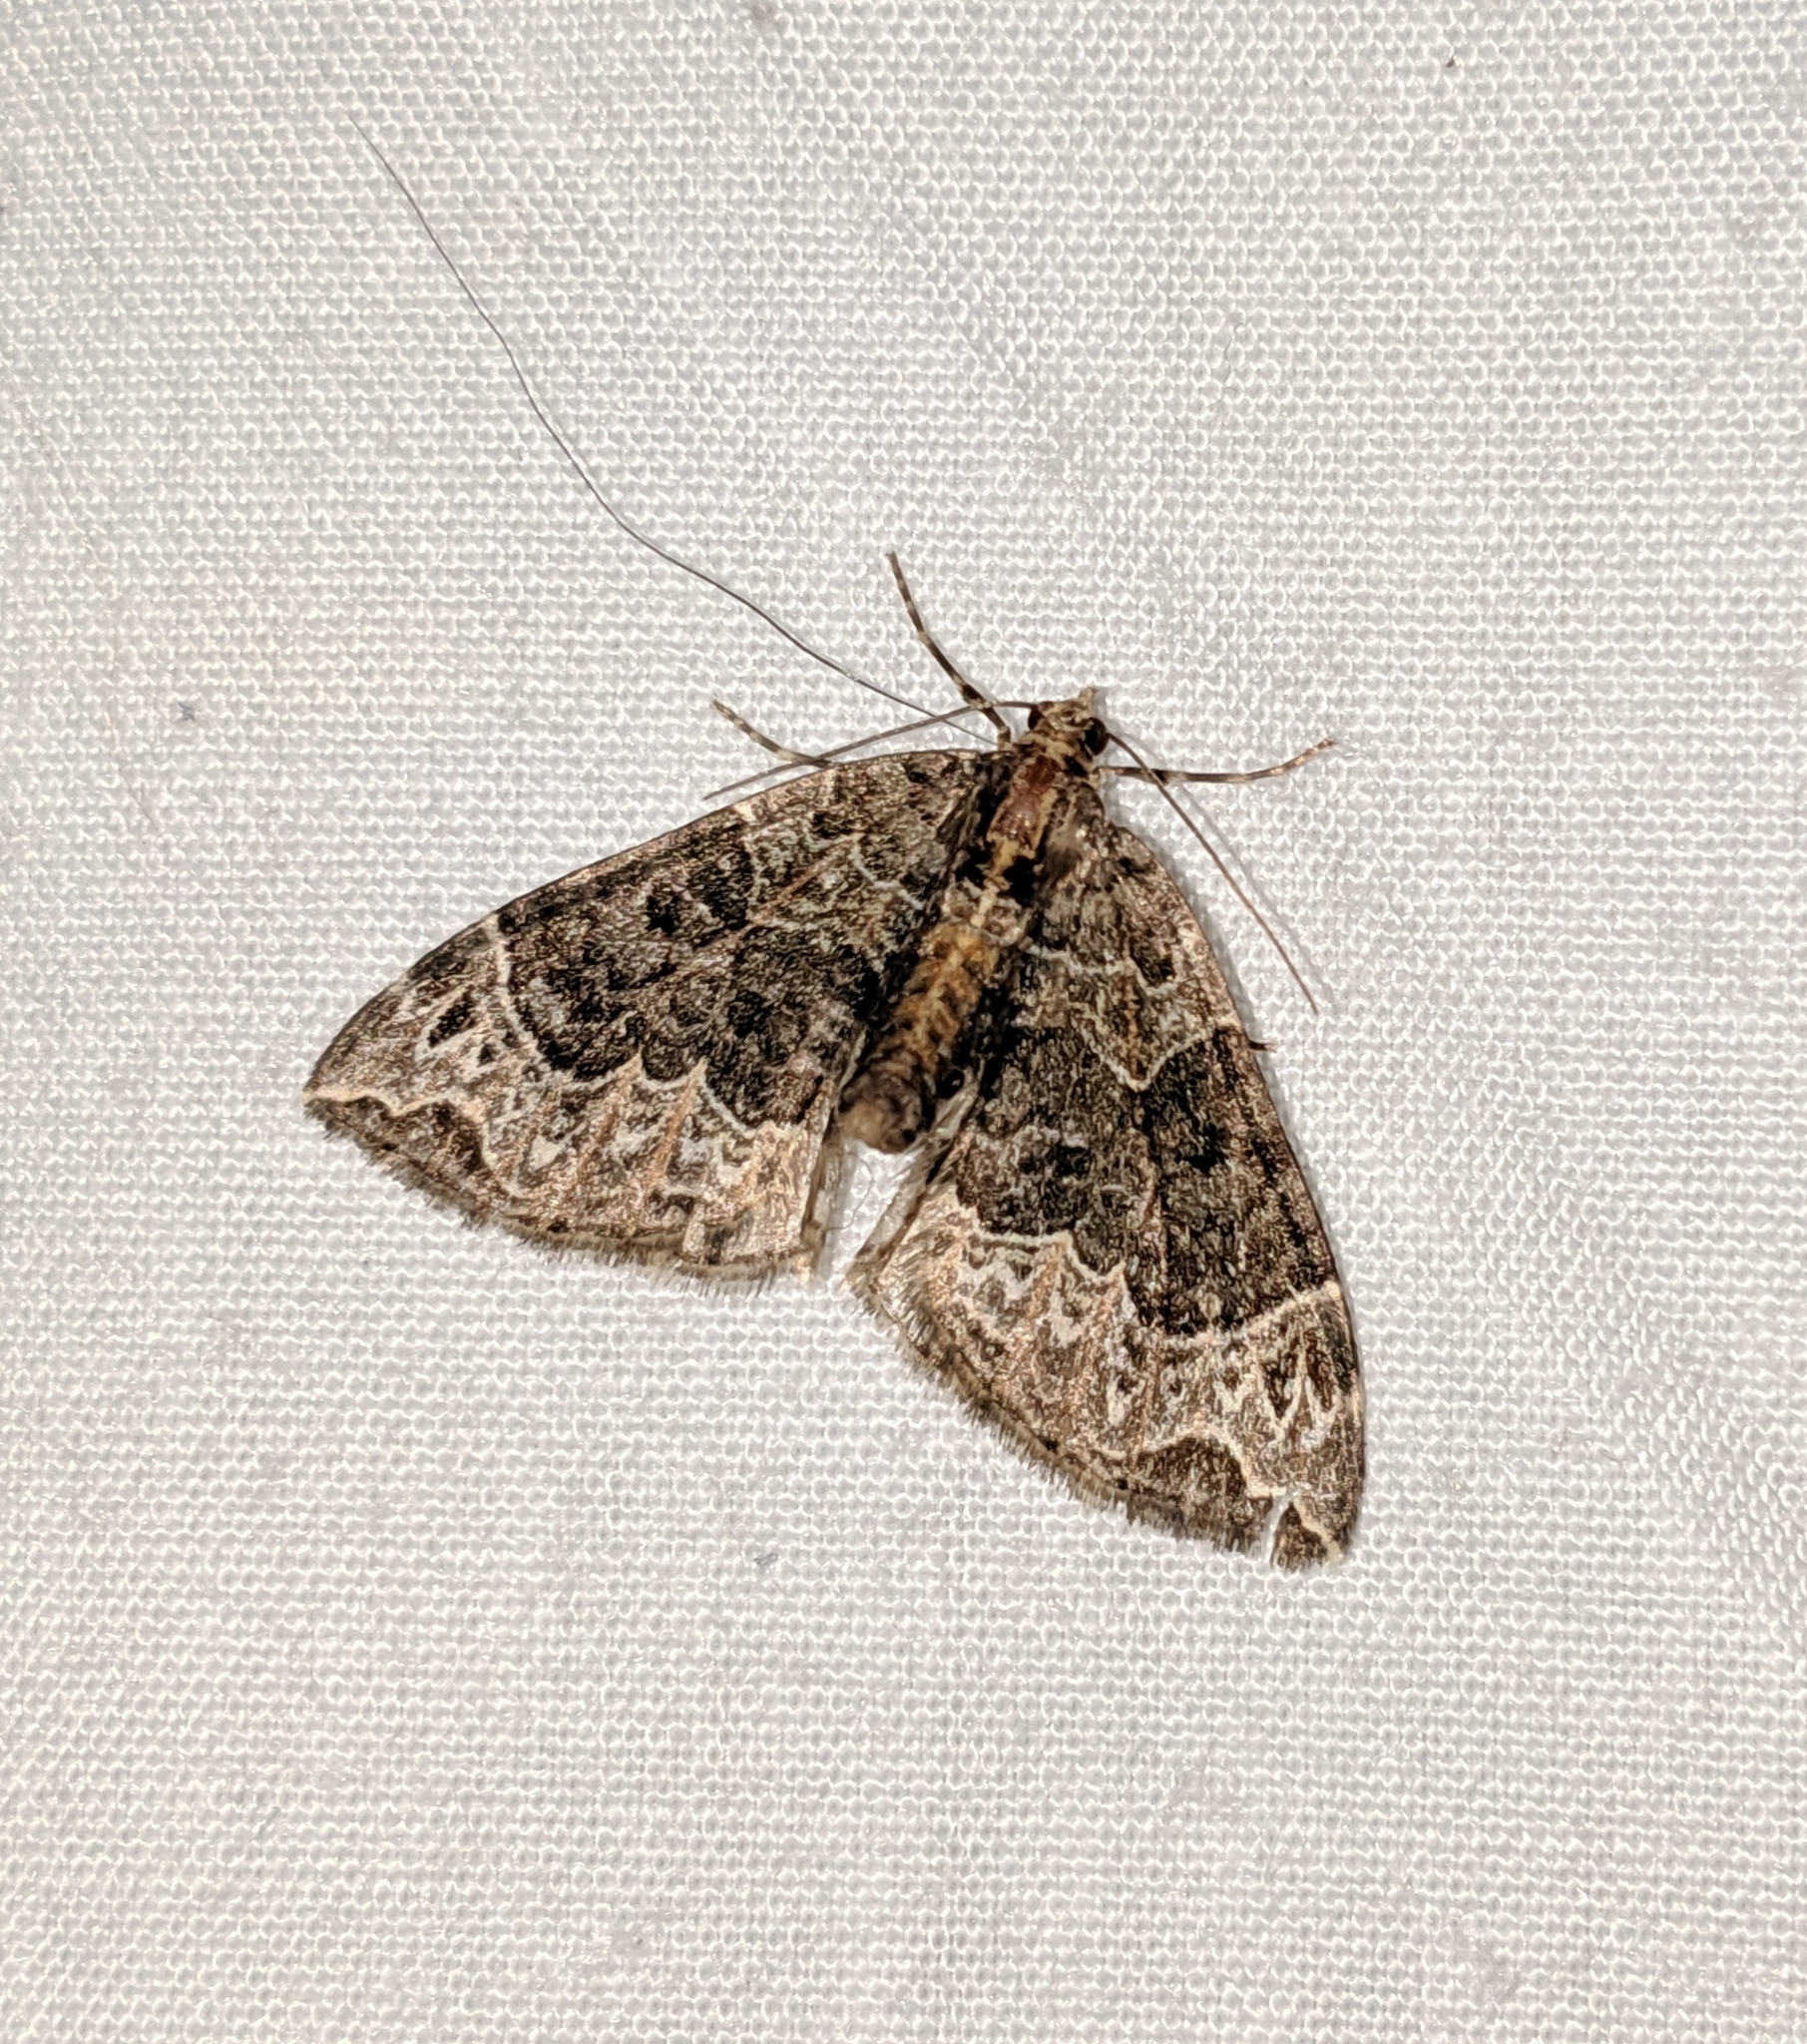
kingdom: Animalia
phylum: Arthropoda
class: Insecta
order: Lepidoptera
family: Geometridae
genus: Ecliptopera
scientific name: Ecliptopera silaceata
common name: Small phoenix
